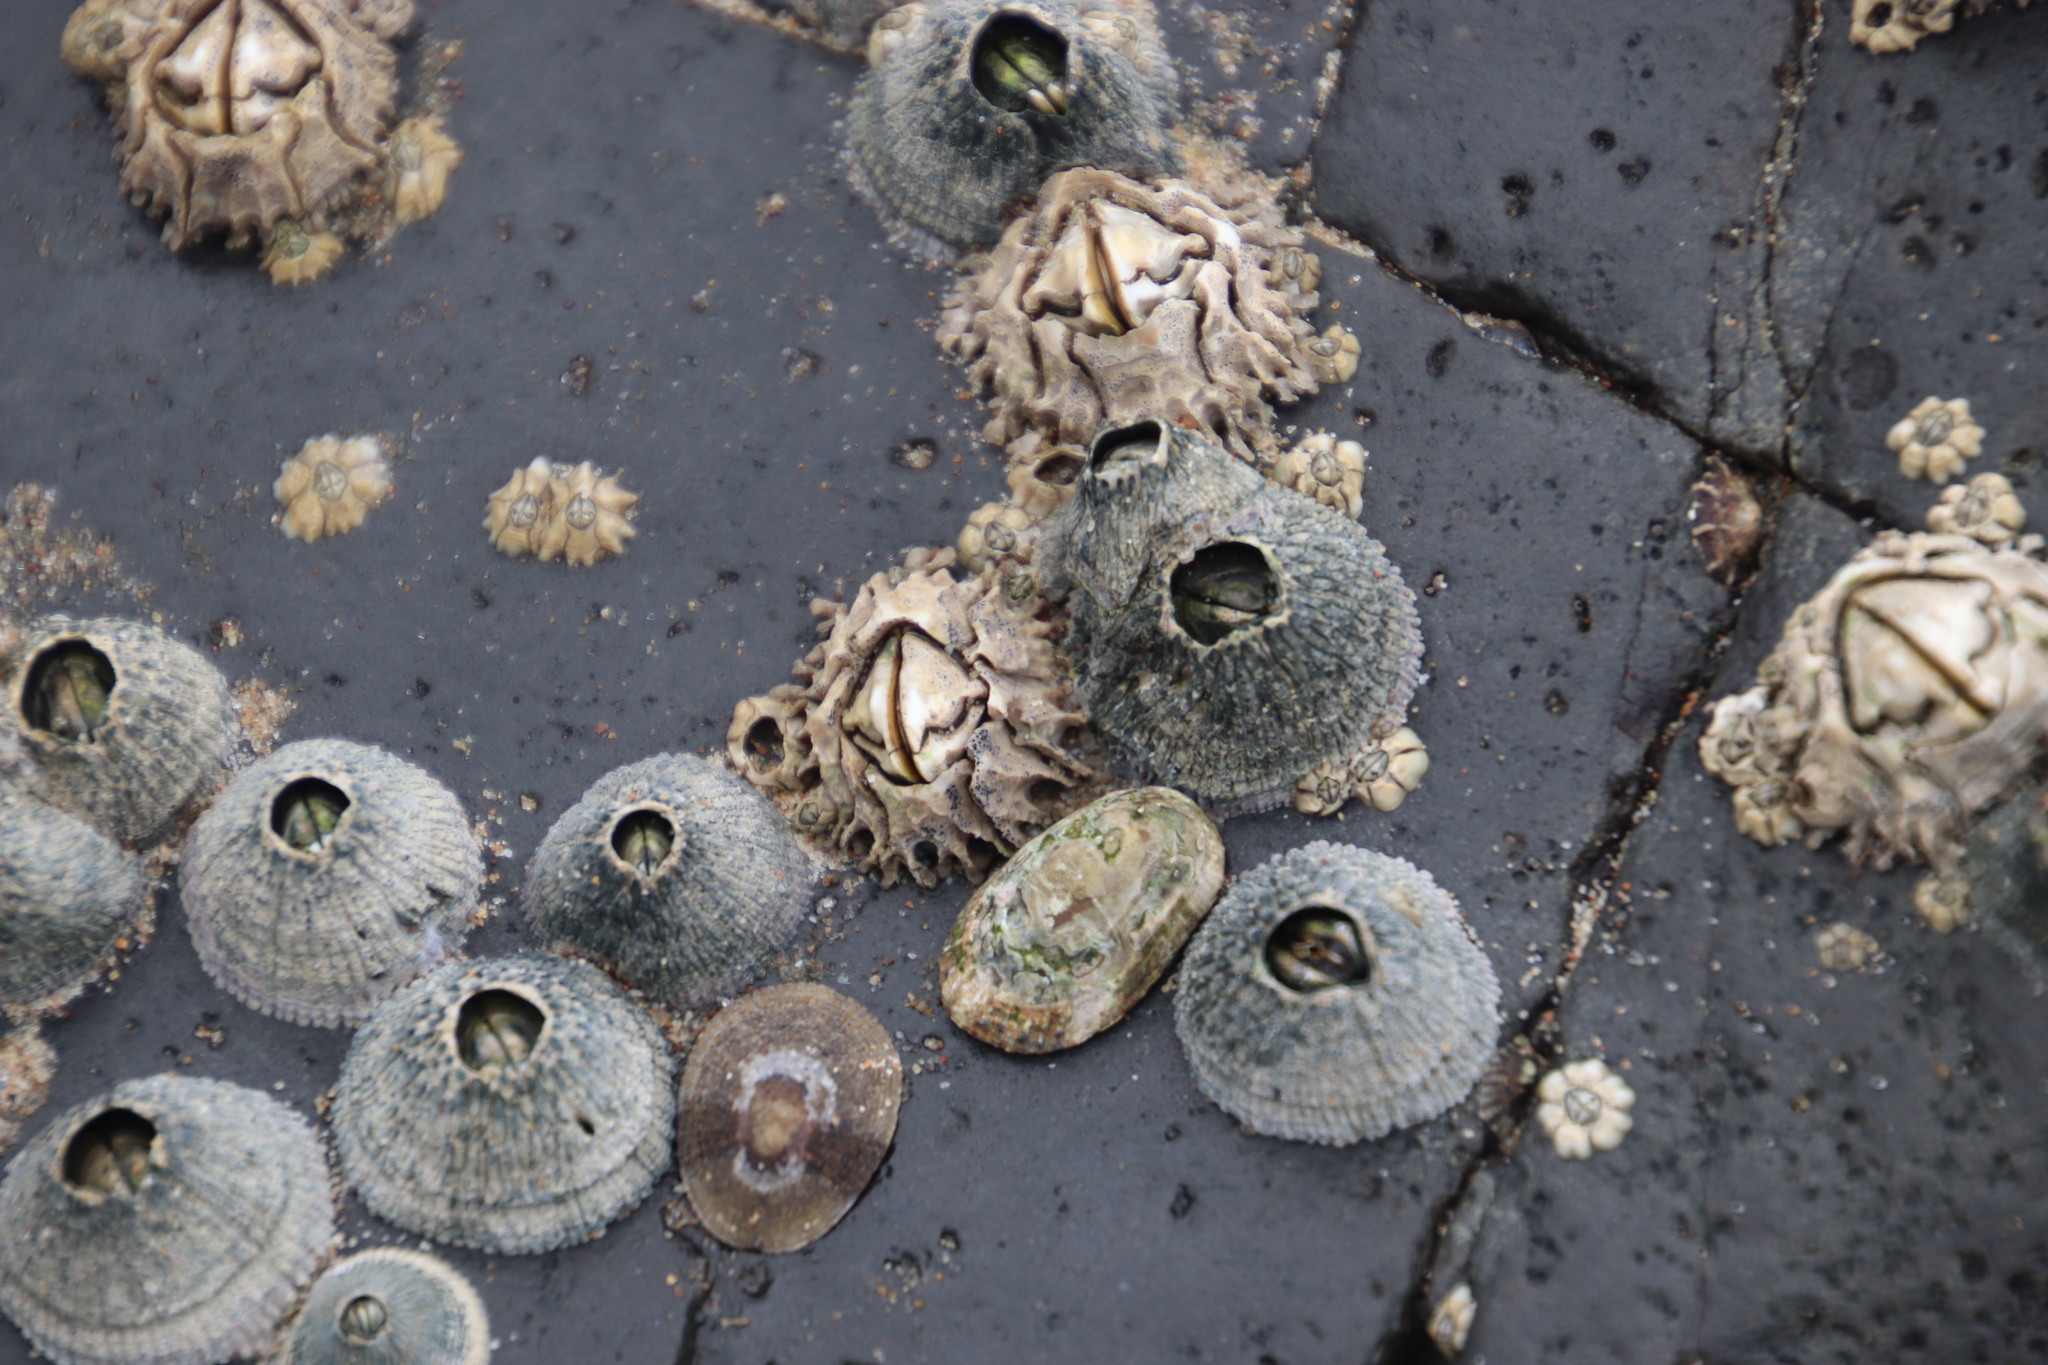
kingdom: Animalia
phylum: Arthropoda
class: Maxillopoda
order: Sessilia
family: Tetraclitidae
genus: Tetraclita
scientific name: Tetraclita serrata
